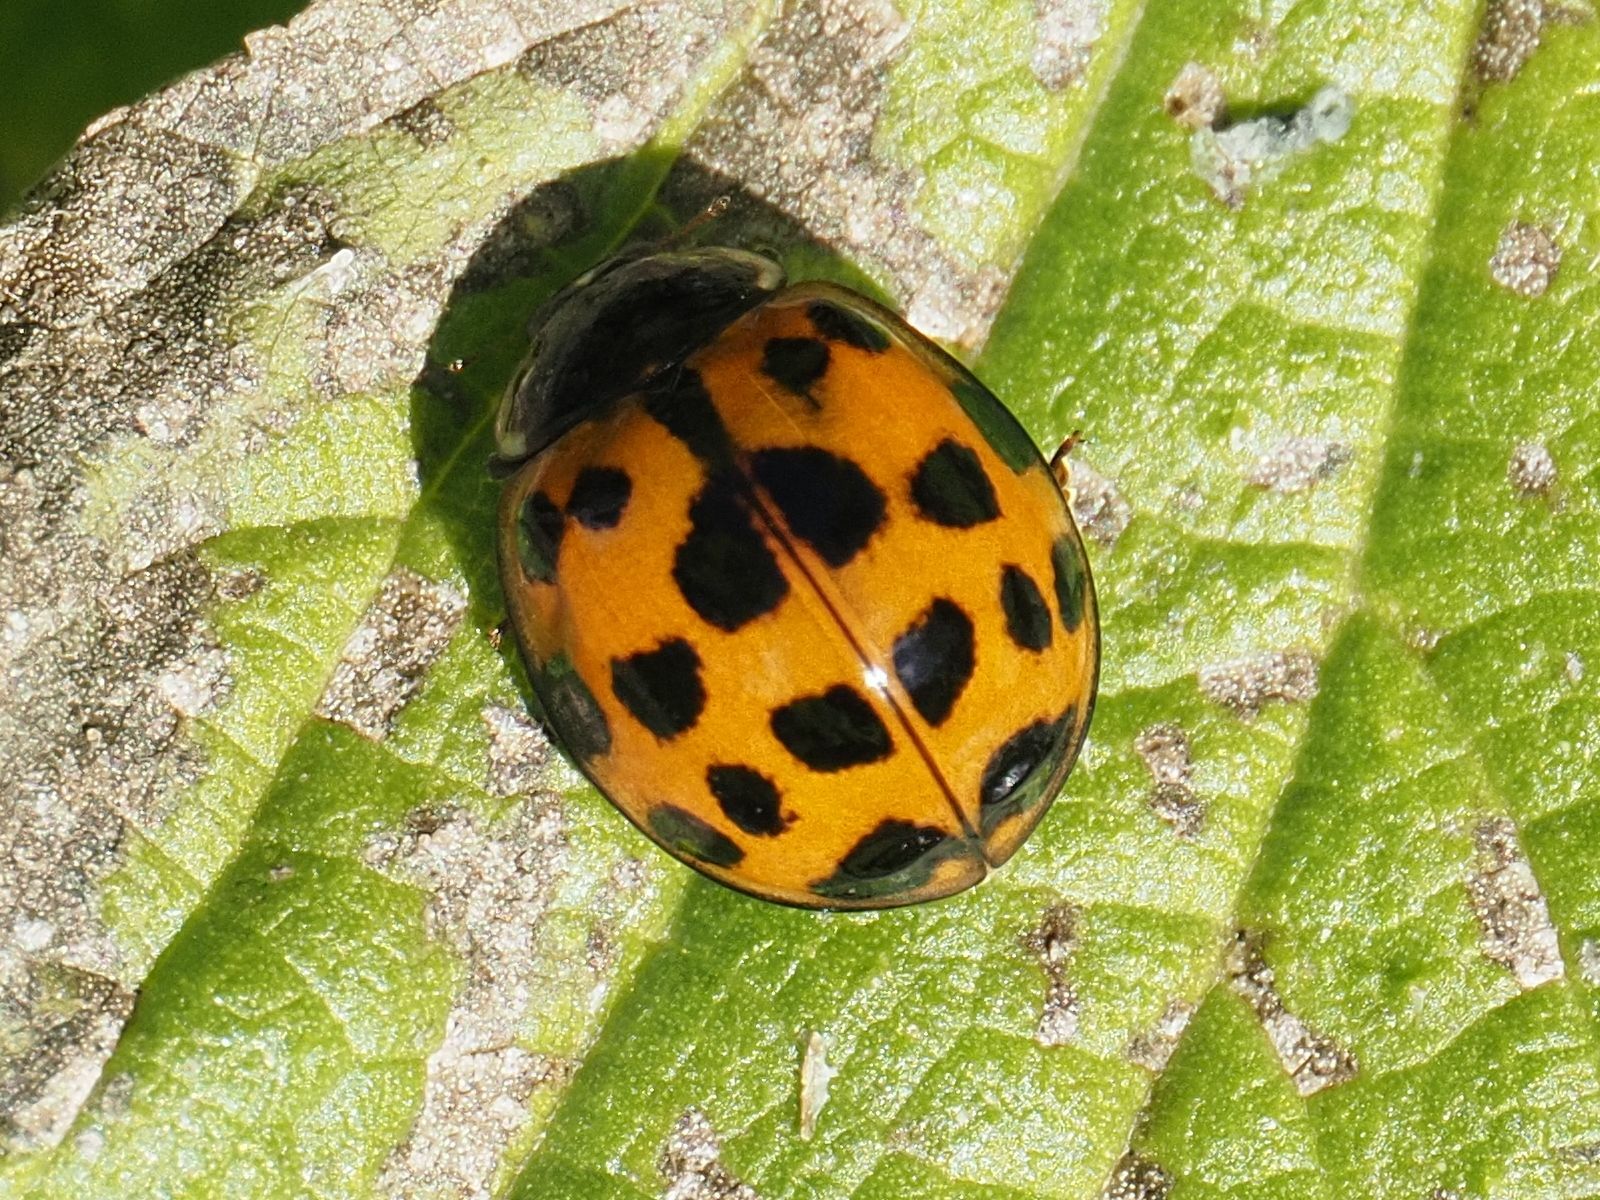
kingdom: Animalia
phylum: Arthropoda
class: Insecta
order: Coleoptera
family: Coccinellidae
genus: Harmonia
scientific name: Harmonia axyridis
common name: Harlequin ladybird
